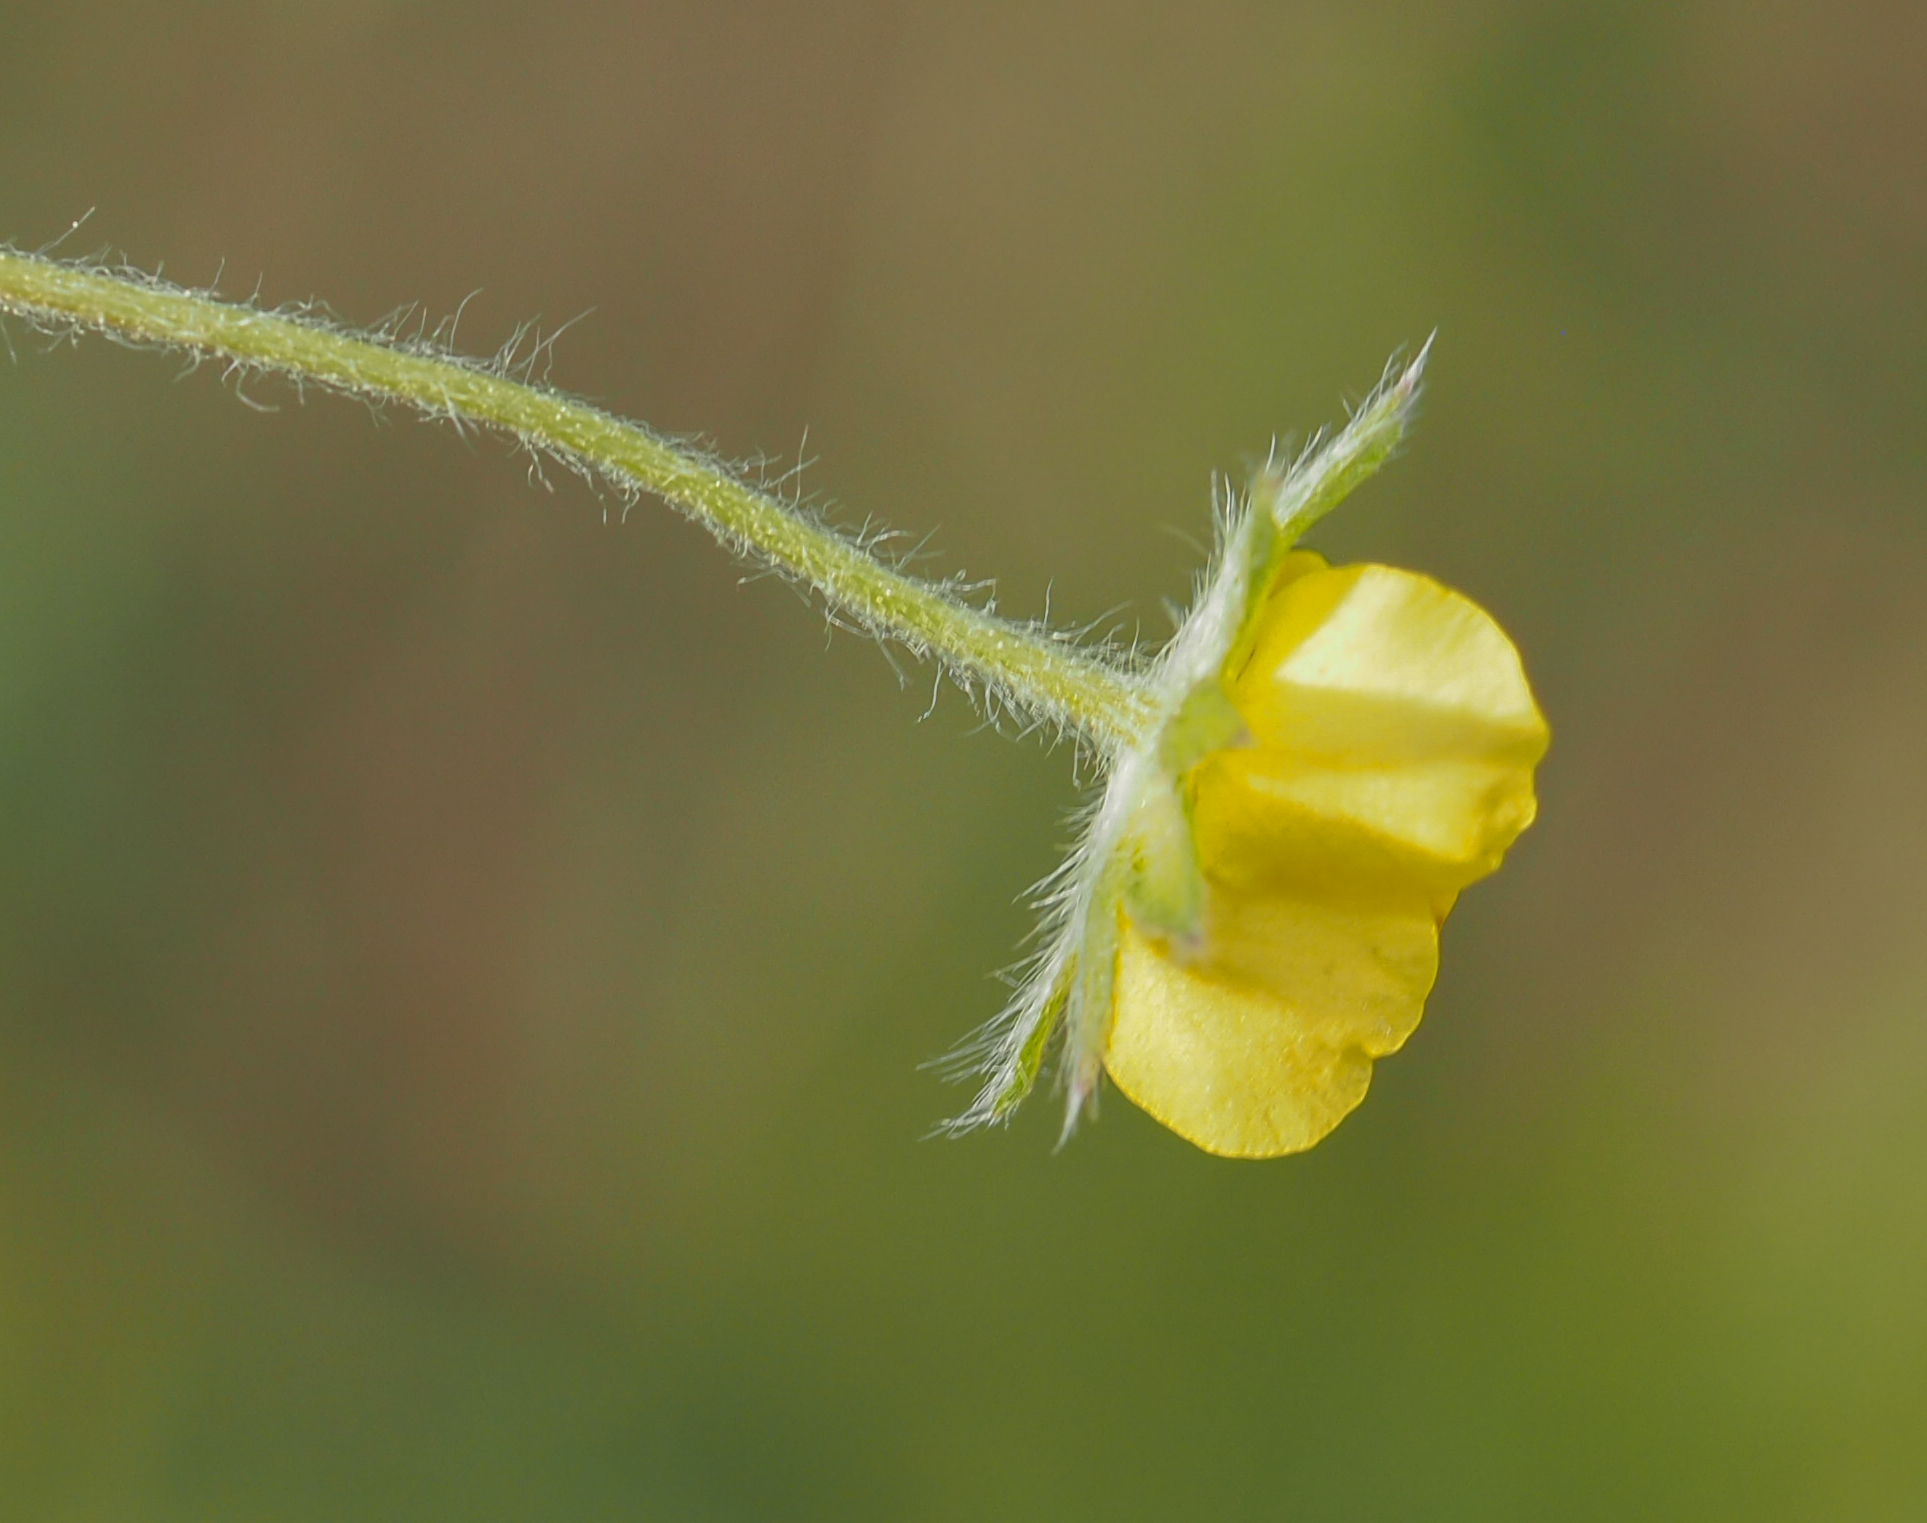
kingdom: Plantae
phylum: Tracheophyta
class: Magnoliopsida
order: Rosales
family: Rosaceae
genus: Potentilla
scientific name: Potentilla simplex
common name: Old field cinquefoil
